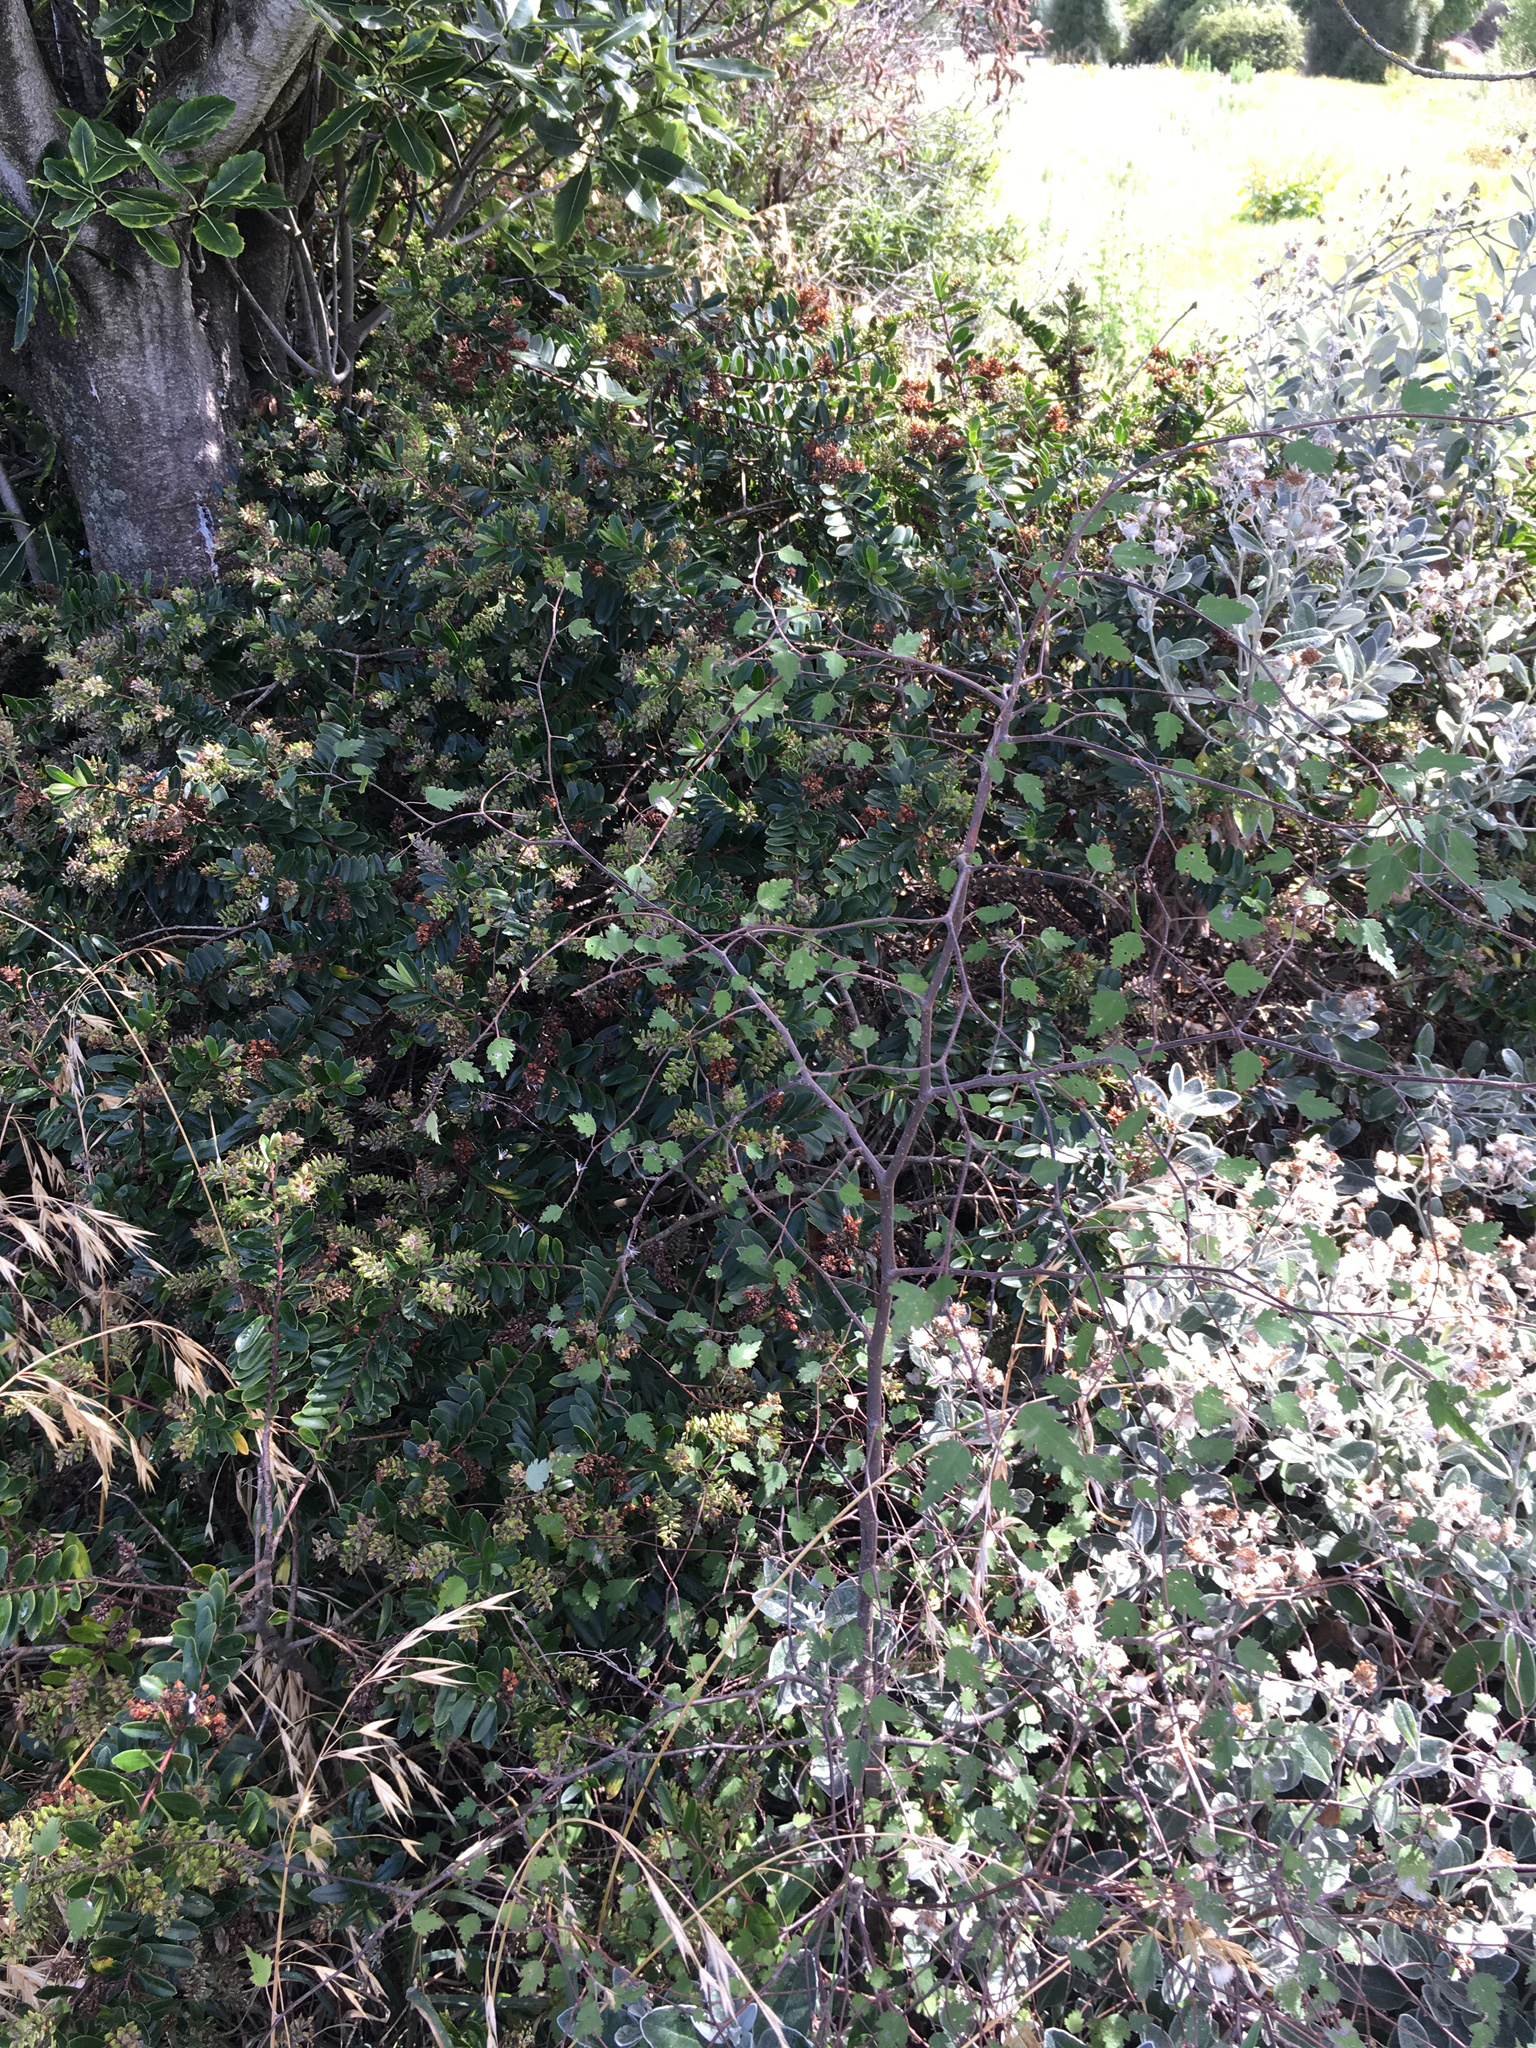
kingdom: Plantae
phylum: Tracheophyta
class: Magnoliopsida
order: Malvales
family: Malvaceae
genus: Plagianthus
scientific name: Plagianthus regius
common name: Manatu
